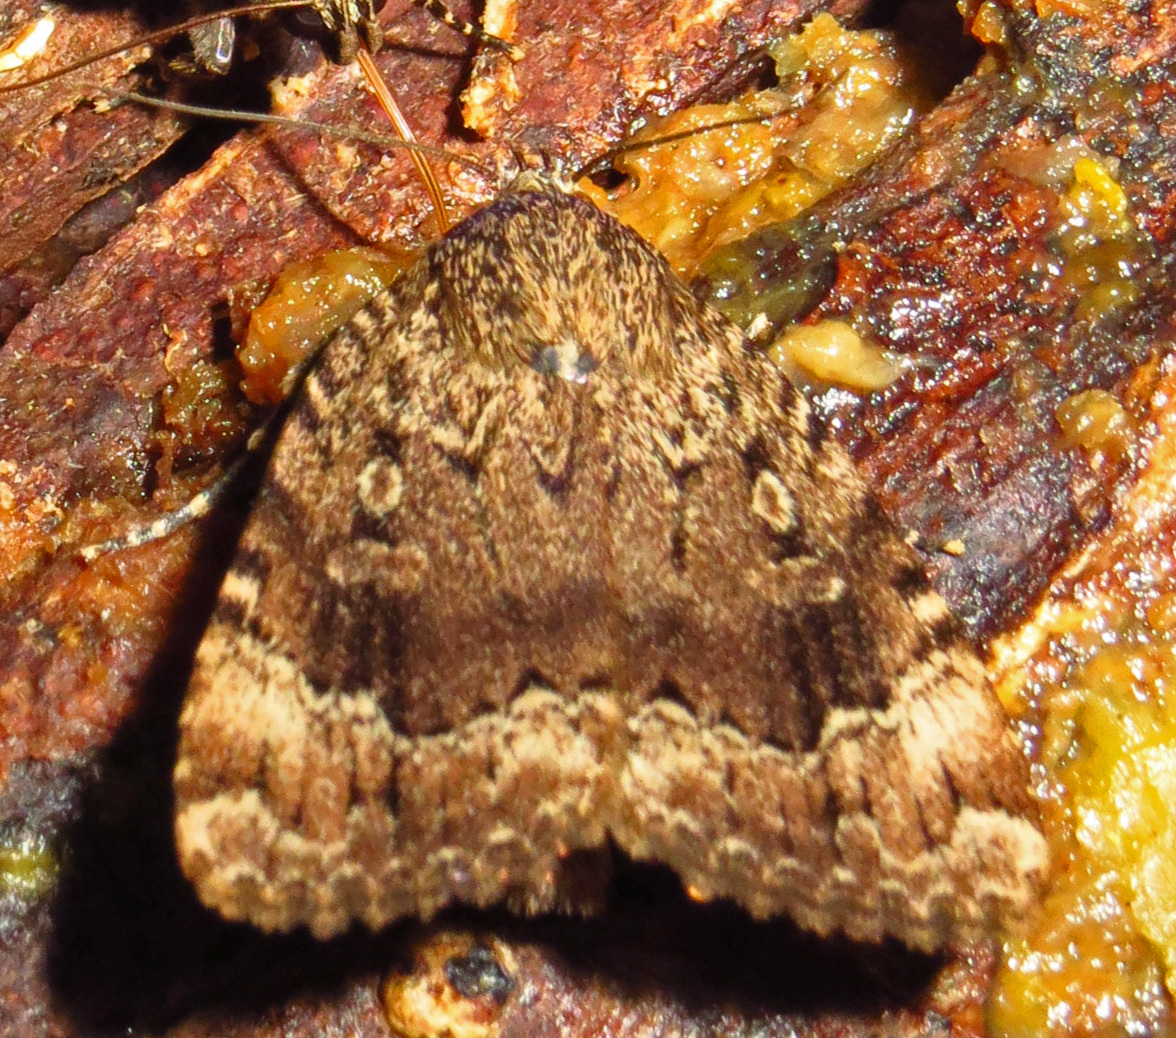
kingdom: Animalia
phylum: Arthropoda
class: Insecta
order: Lepidoptera
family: Noctuidae
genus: Amphipyra
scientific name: Amphipyra pyramidoides
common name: American copper underwing
